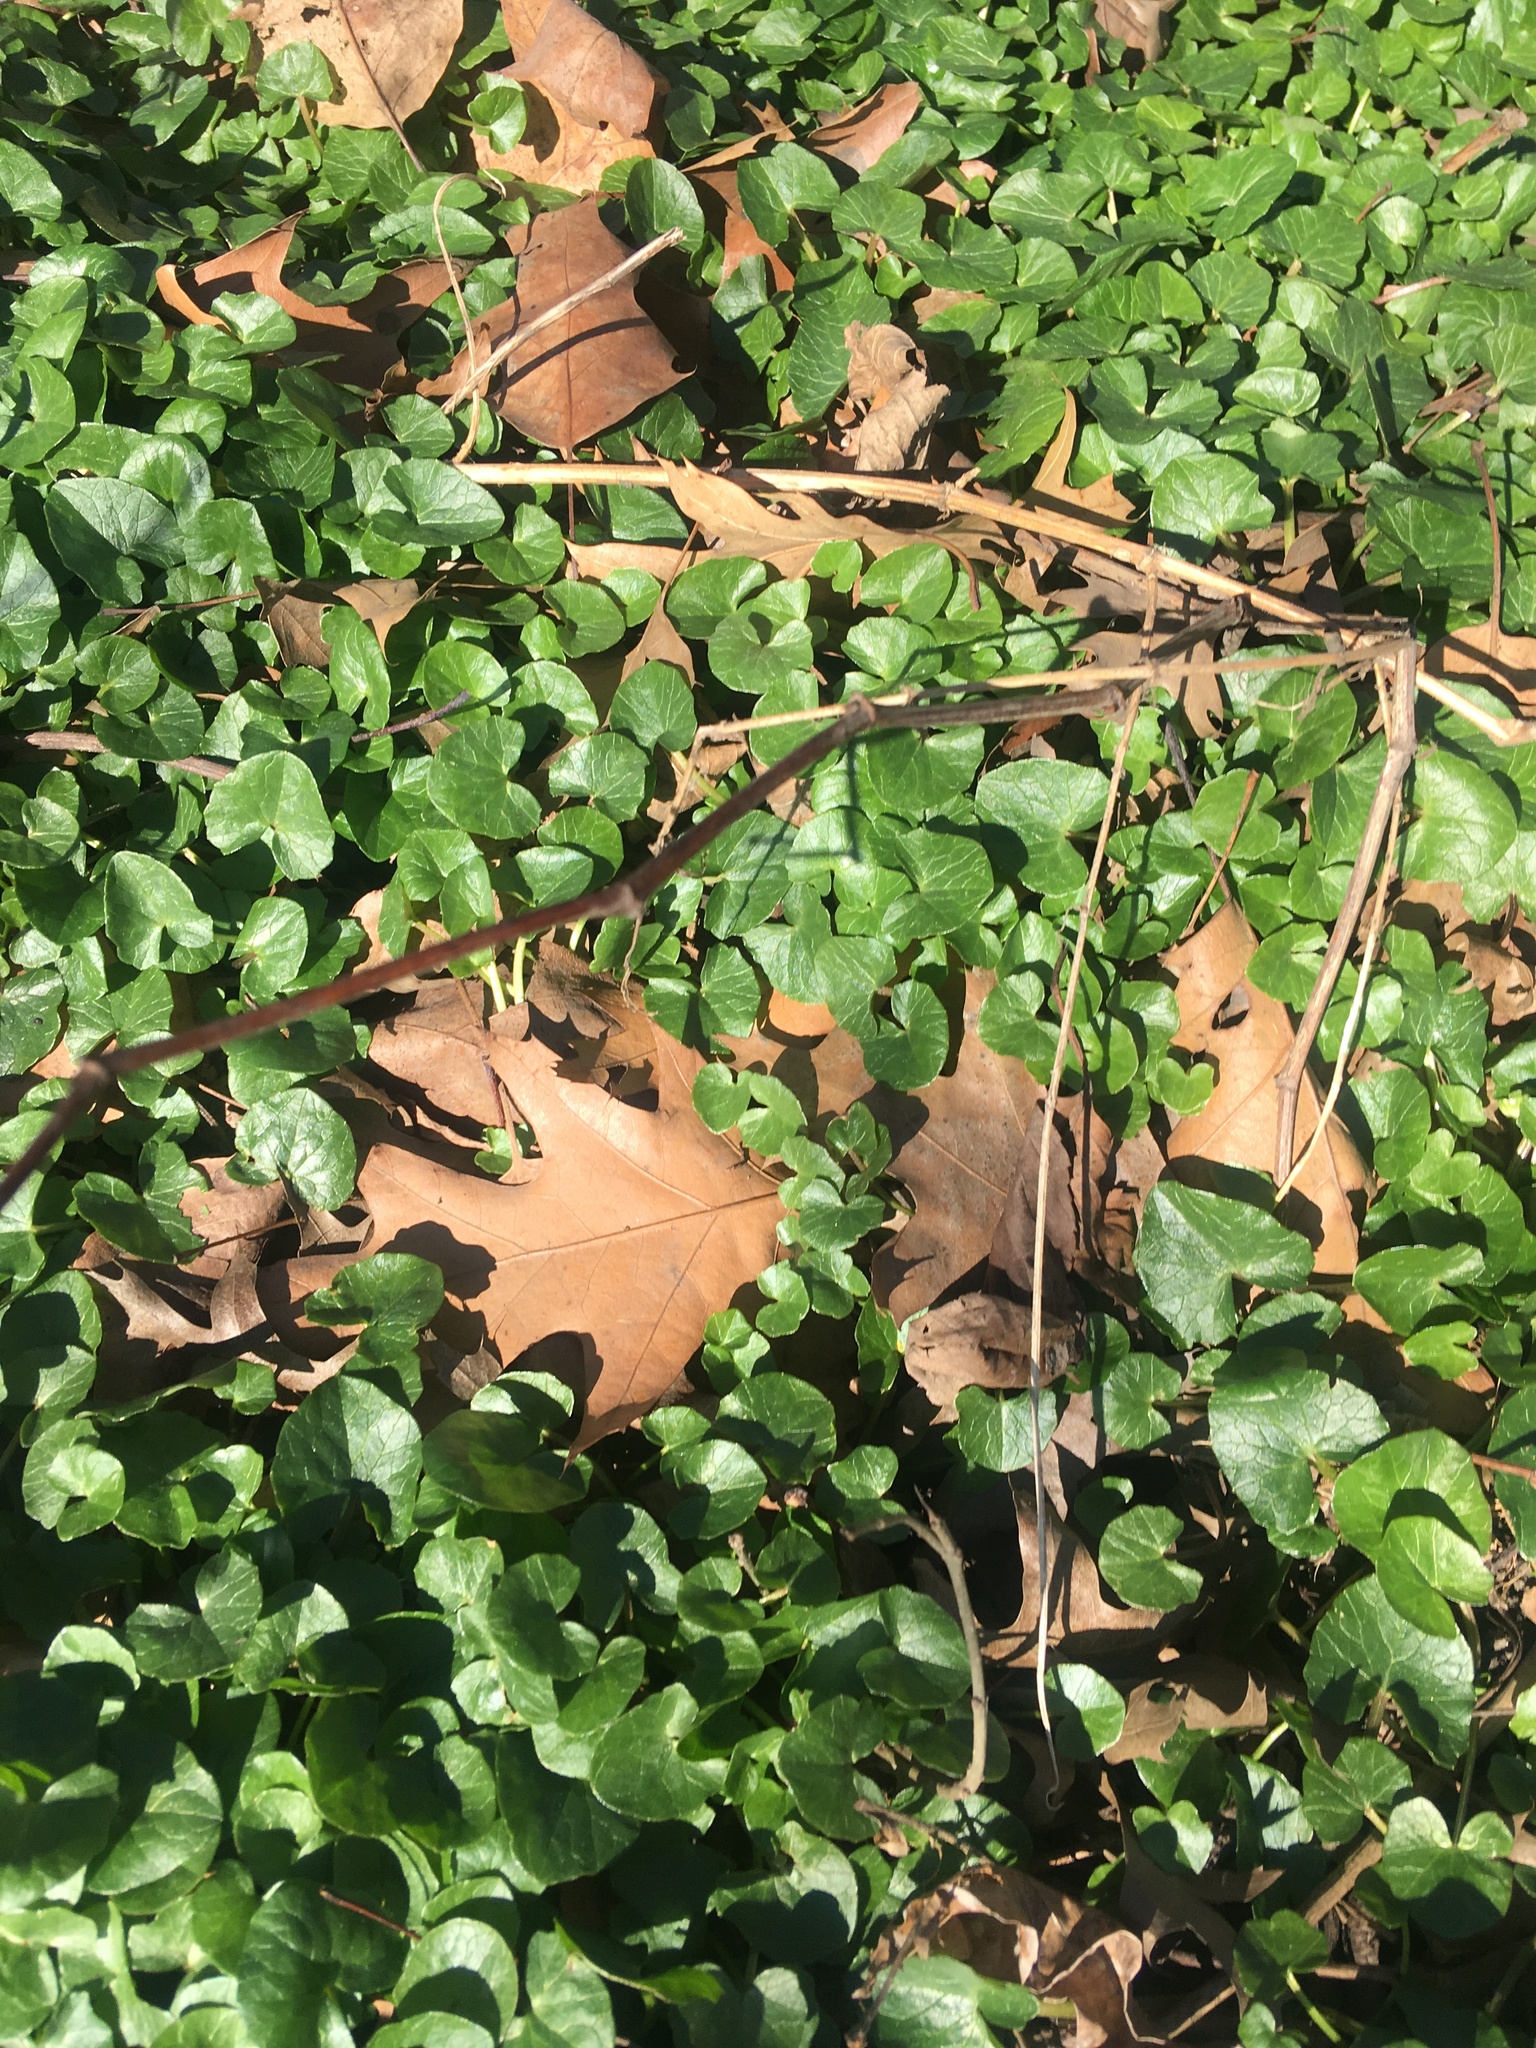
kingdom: Plantae
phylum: Tracheophyta
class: Magnoliopsida
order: Ranunculales
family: Ranunculaceae
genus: Ficaria
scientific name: Ficaria verna
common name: Lesser celandine
